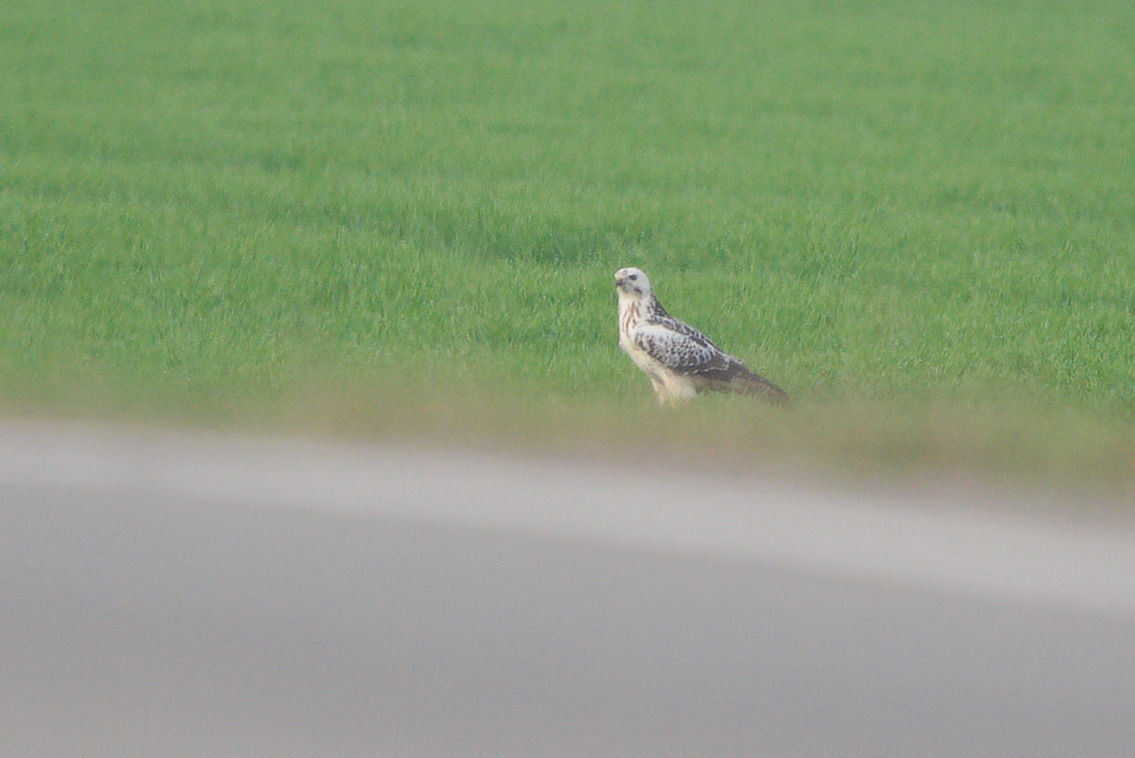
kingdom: Animalia
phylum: Chordata
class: Aves
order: Accipitriformes
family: Accipitridae
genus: Buteo
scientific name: Buteo buteo
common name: Common buzzard
